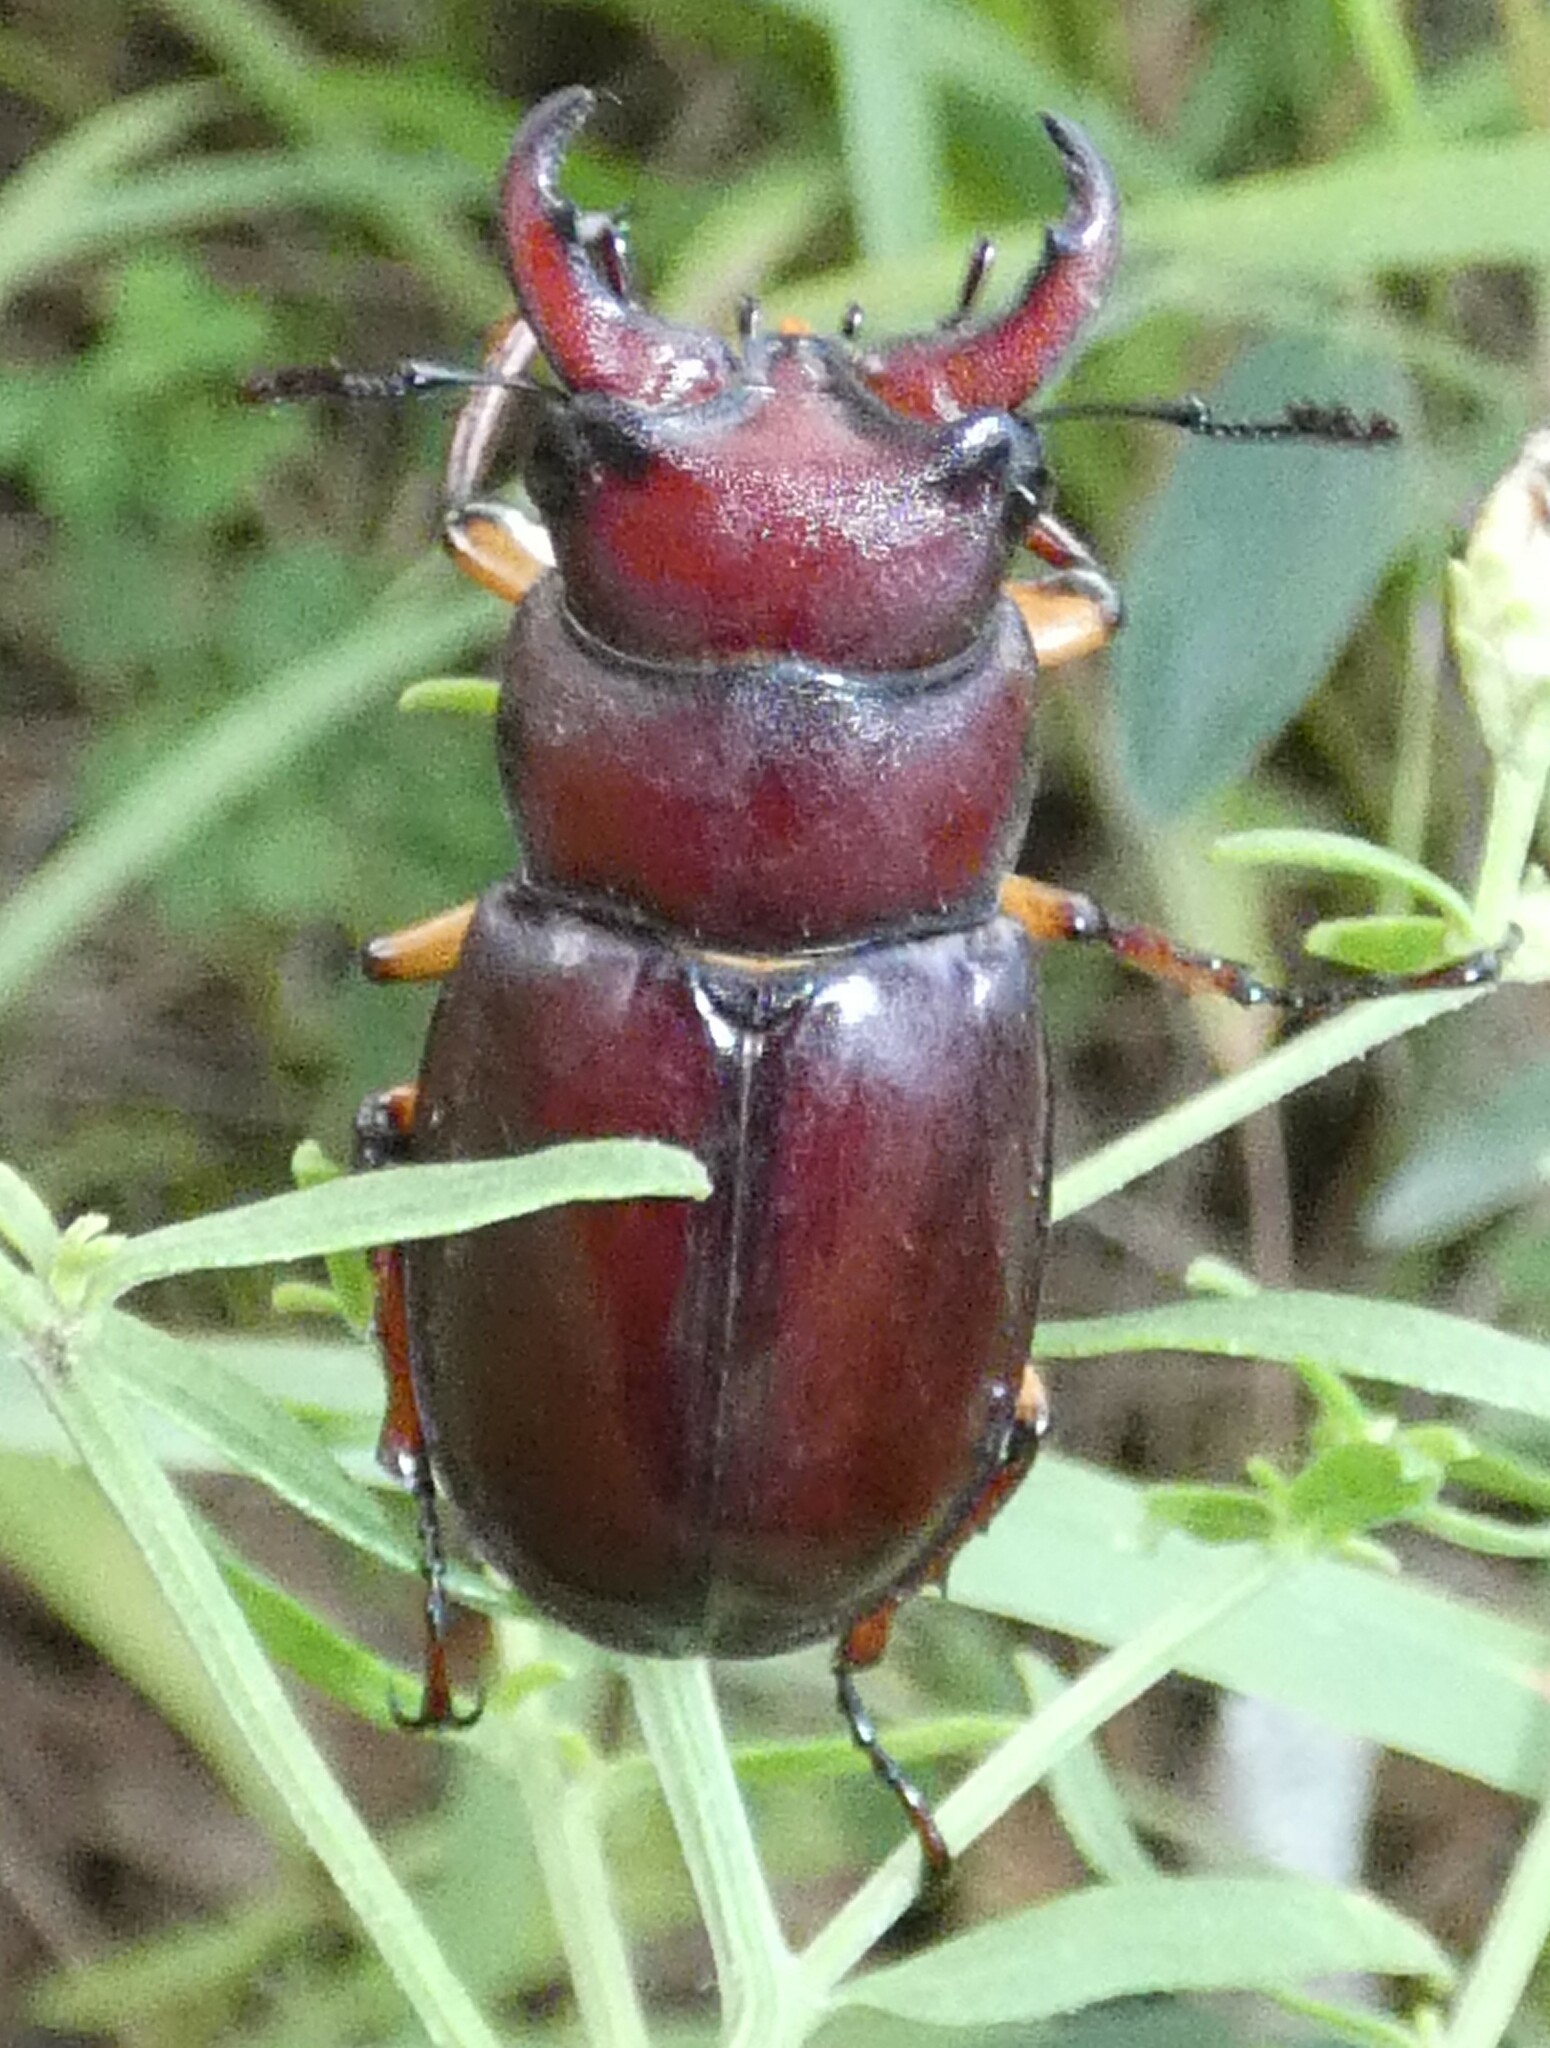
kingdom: Animalia
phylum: Arthropoda
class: Insecta
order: Coleoptera
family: Lucanidae
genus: Lucanus
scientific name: Lucanus capreolus
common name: Stag beetle
